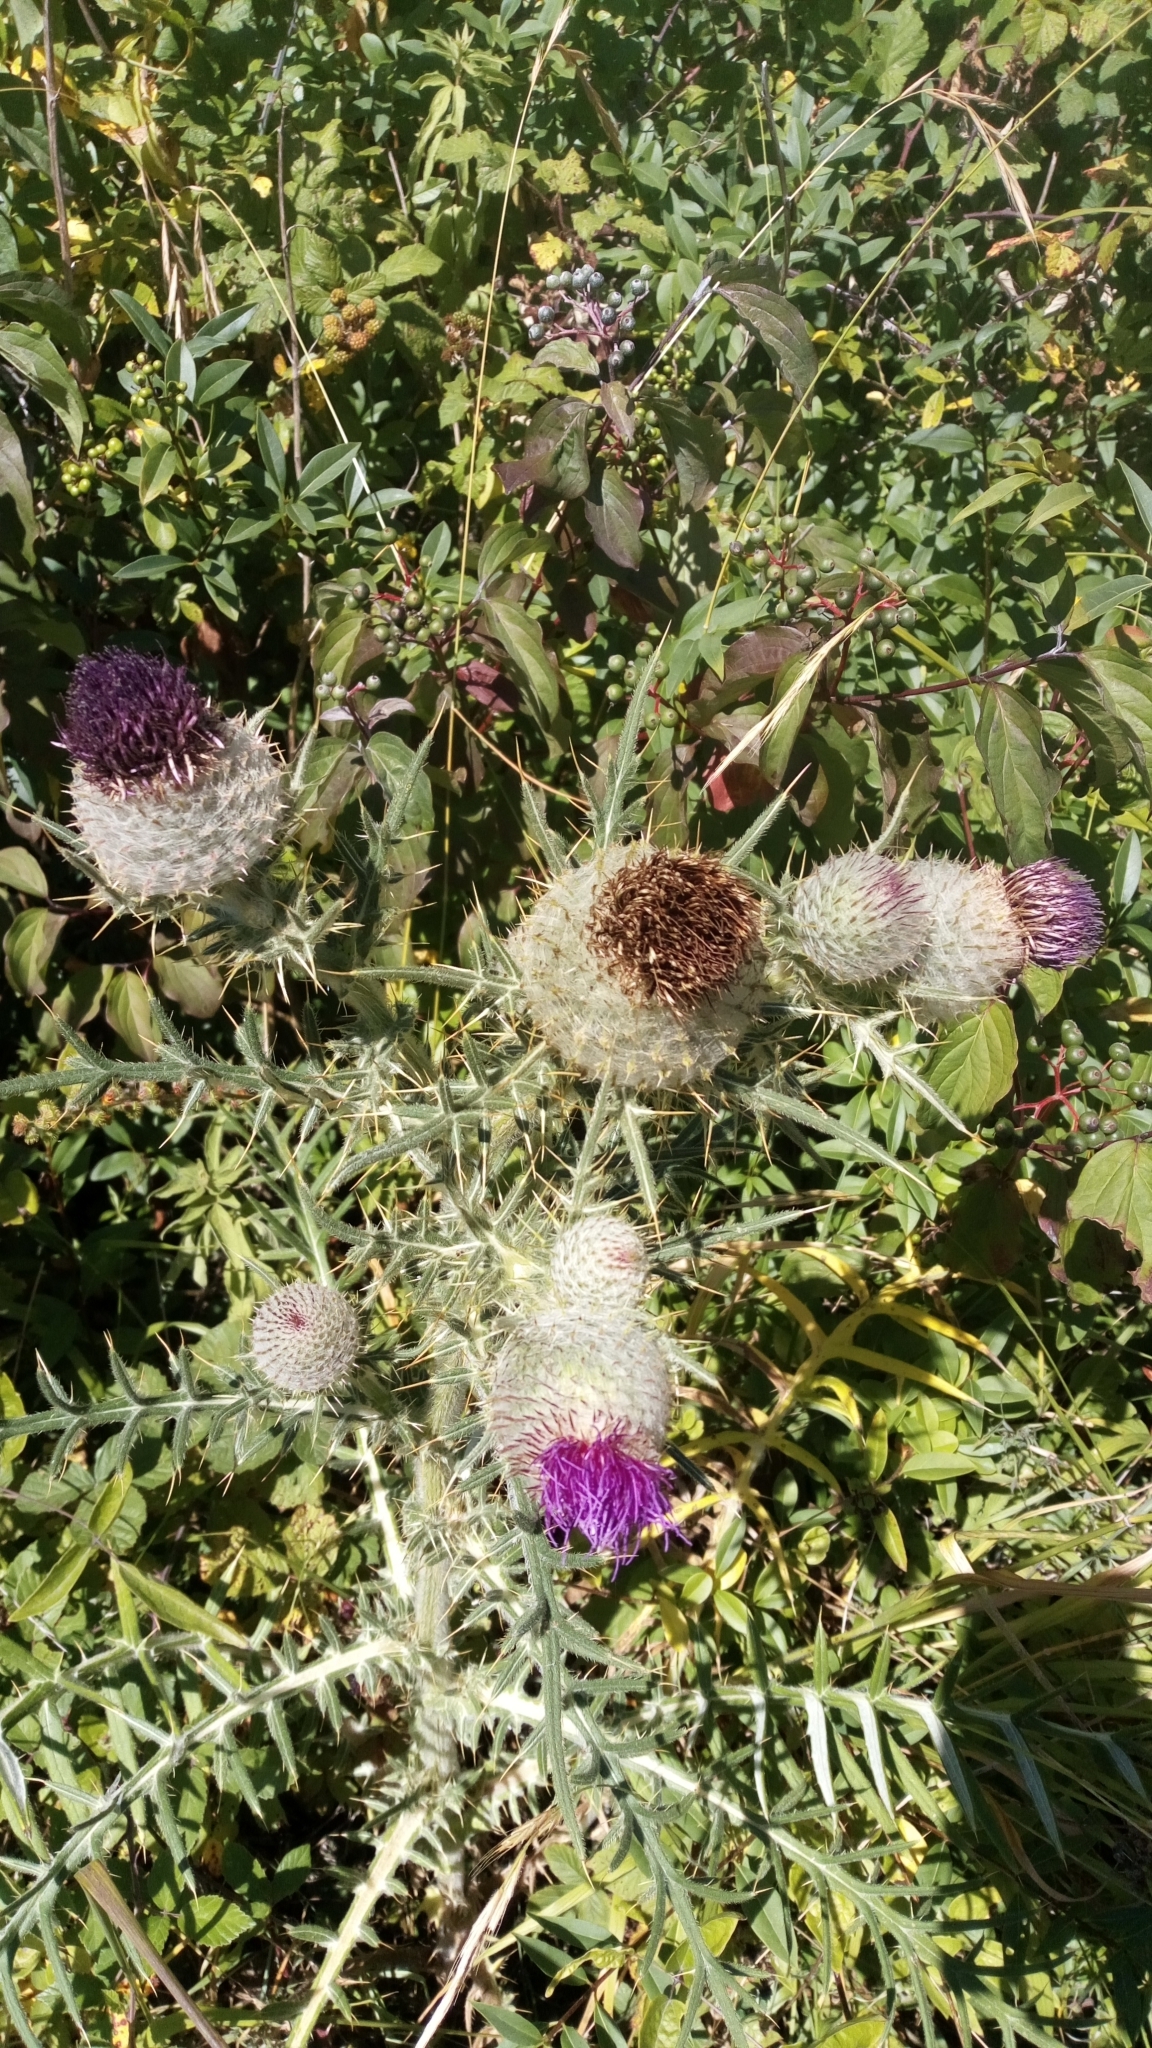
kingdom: Plantae
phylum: Tracheophyta
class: Magnoliopsida
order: Asterales
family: Asteraceae
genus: Lophiolepis
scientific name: Lophiolepis eriophora
